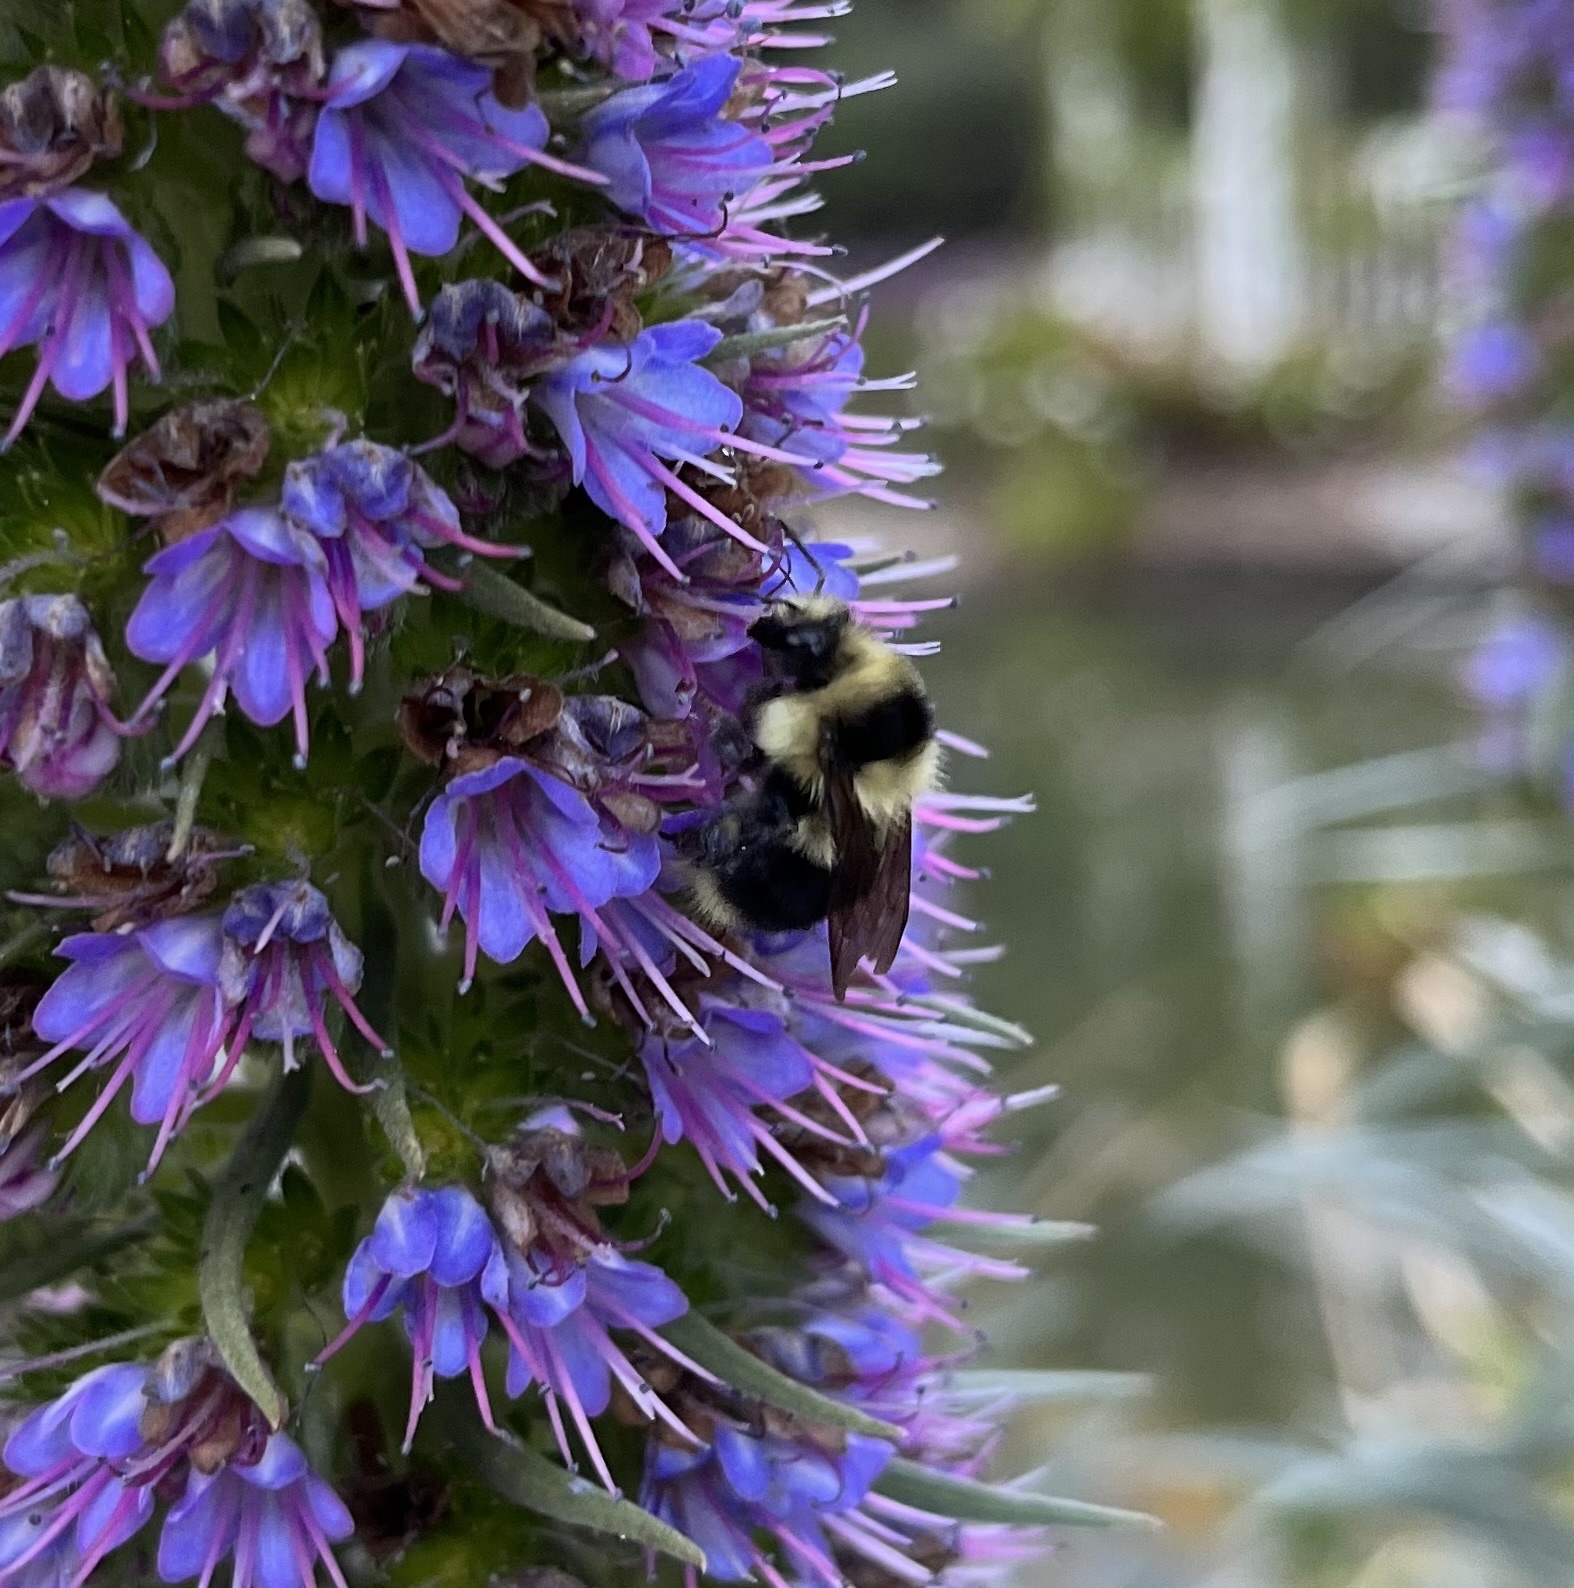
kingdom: Animalia
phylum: Arthropoda
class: Insecta
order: Hymenoptera
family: Apidae
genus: Bombus
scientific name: Bombus melanopygus
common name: Black tail bumble bee
